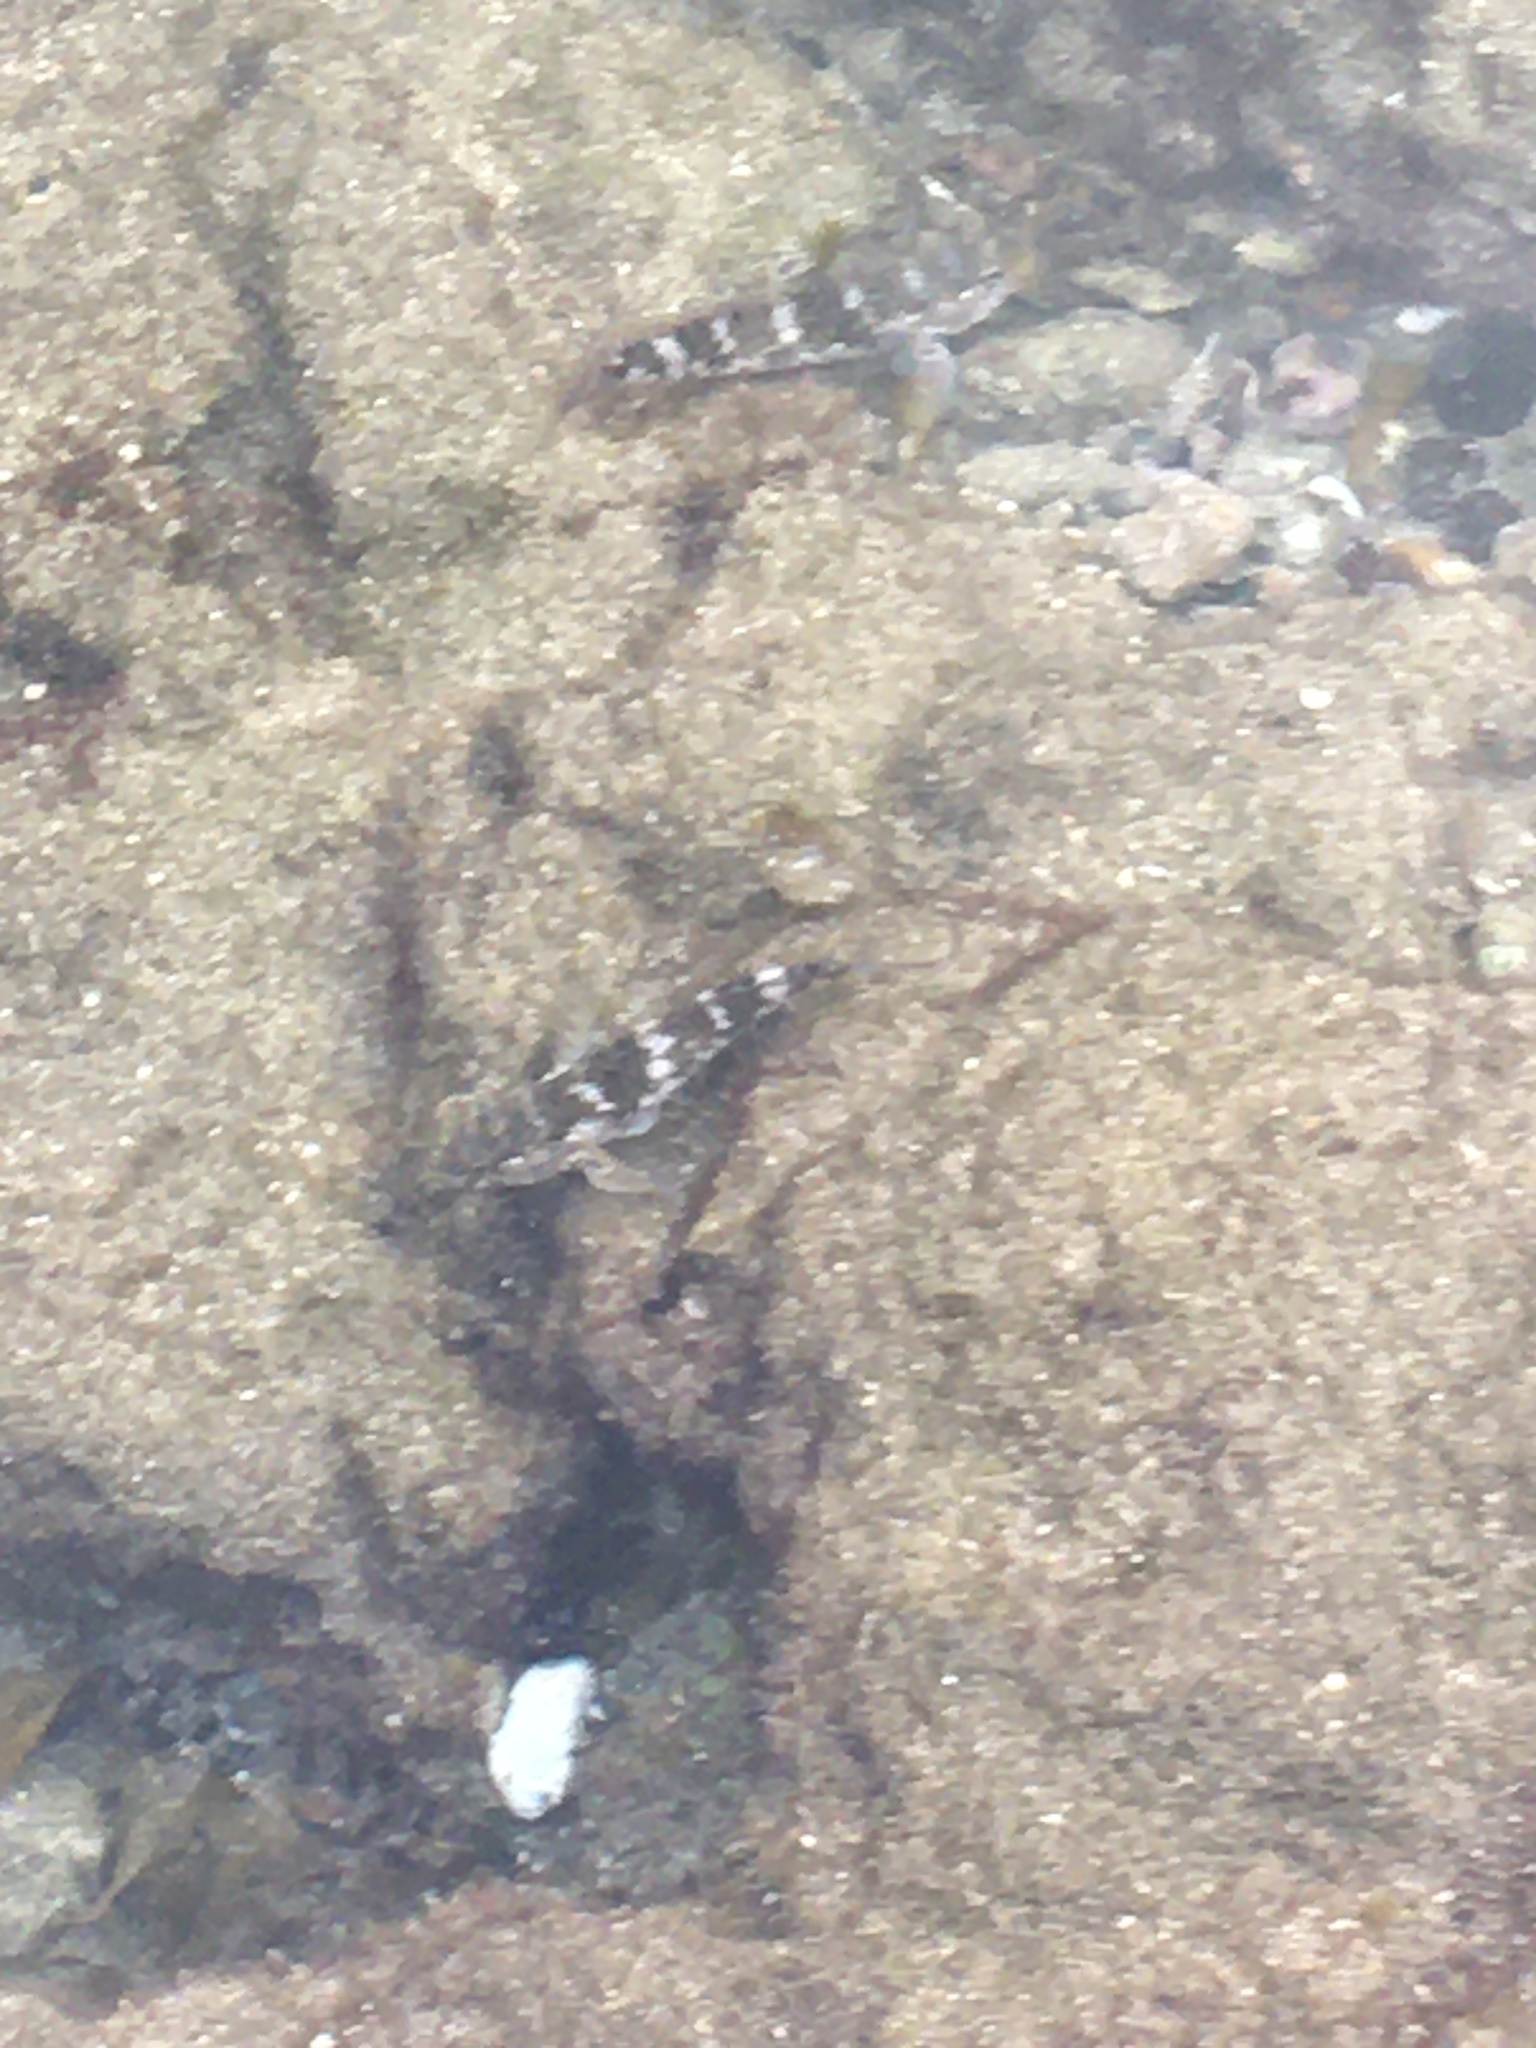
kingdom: Animalia
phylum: Chordata
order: Perciformes
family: Gobiidae
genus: Mauligobius
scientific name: Mauligobius maderensis
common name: Rock goby
